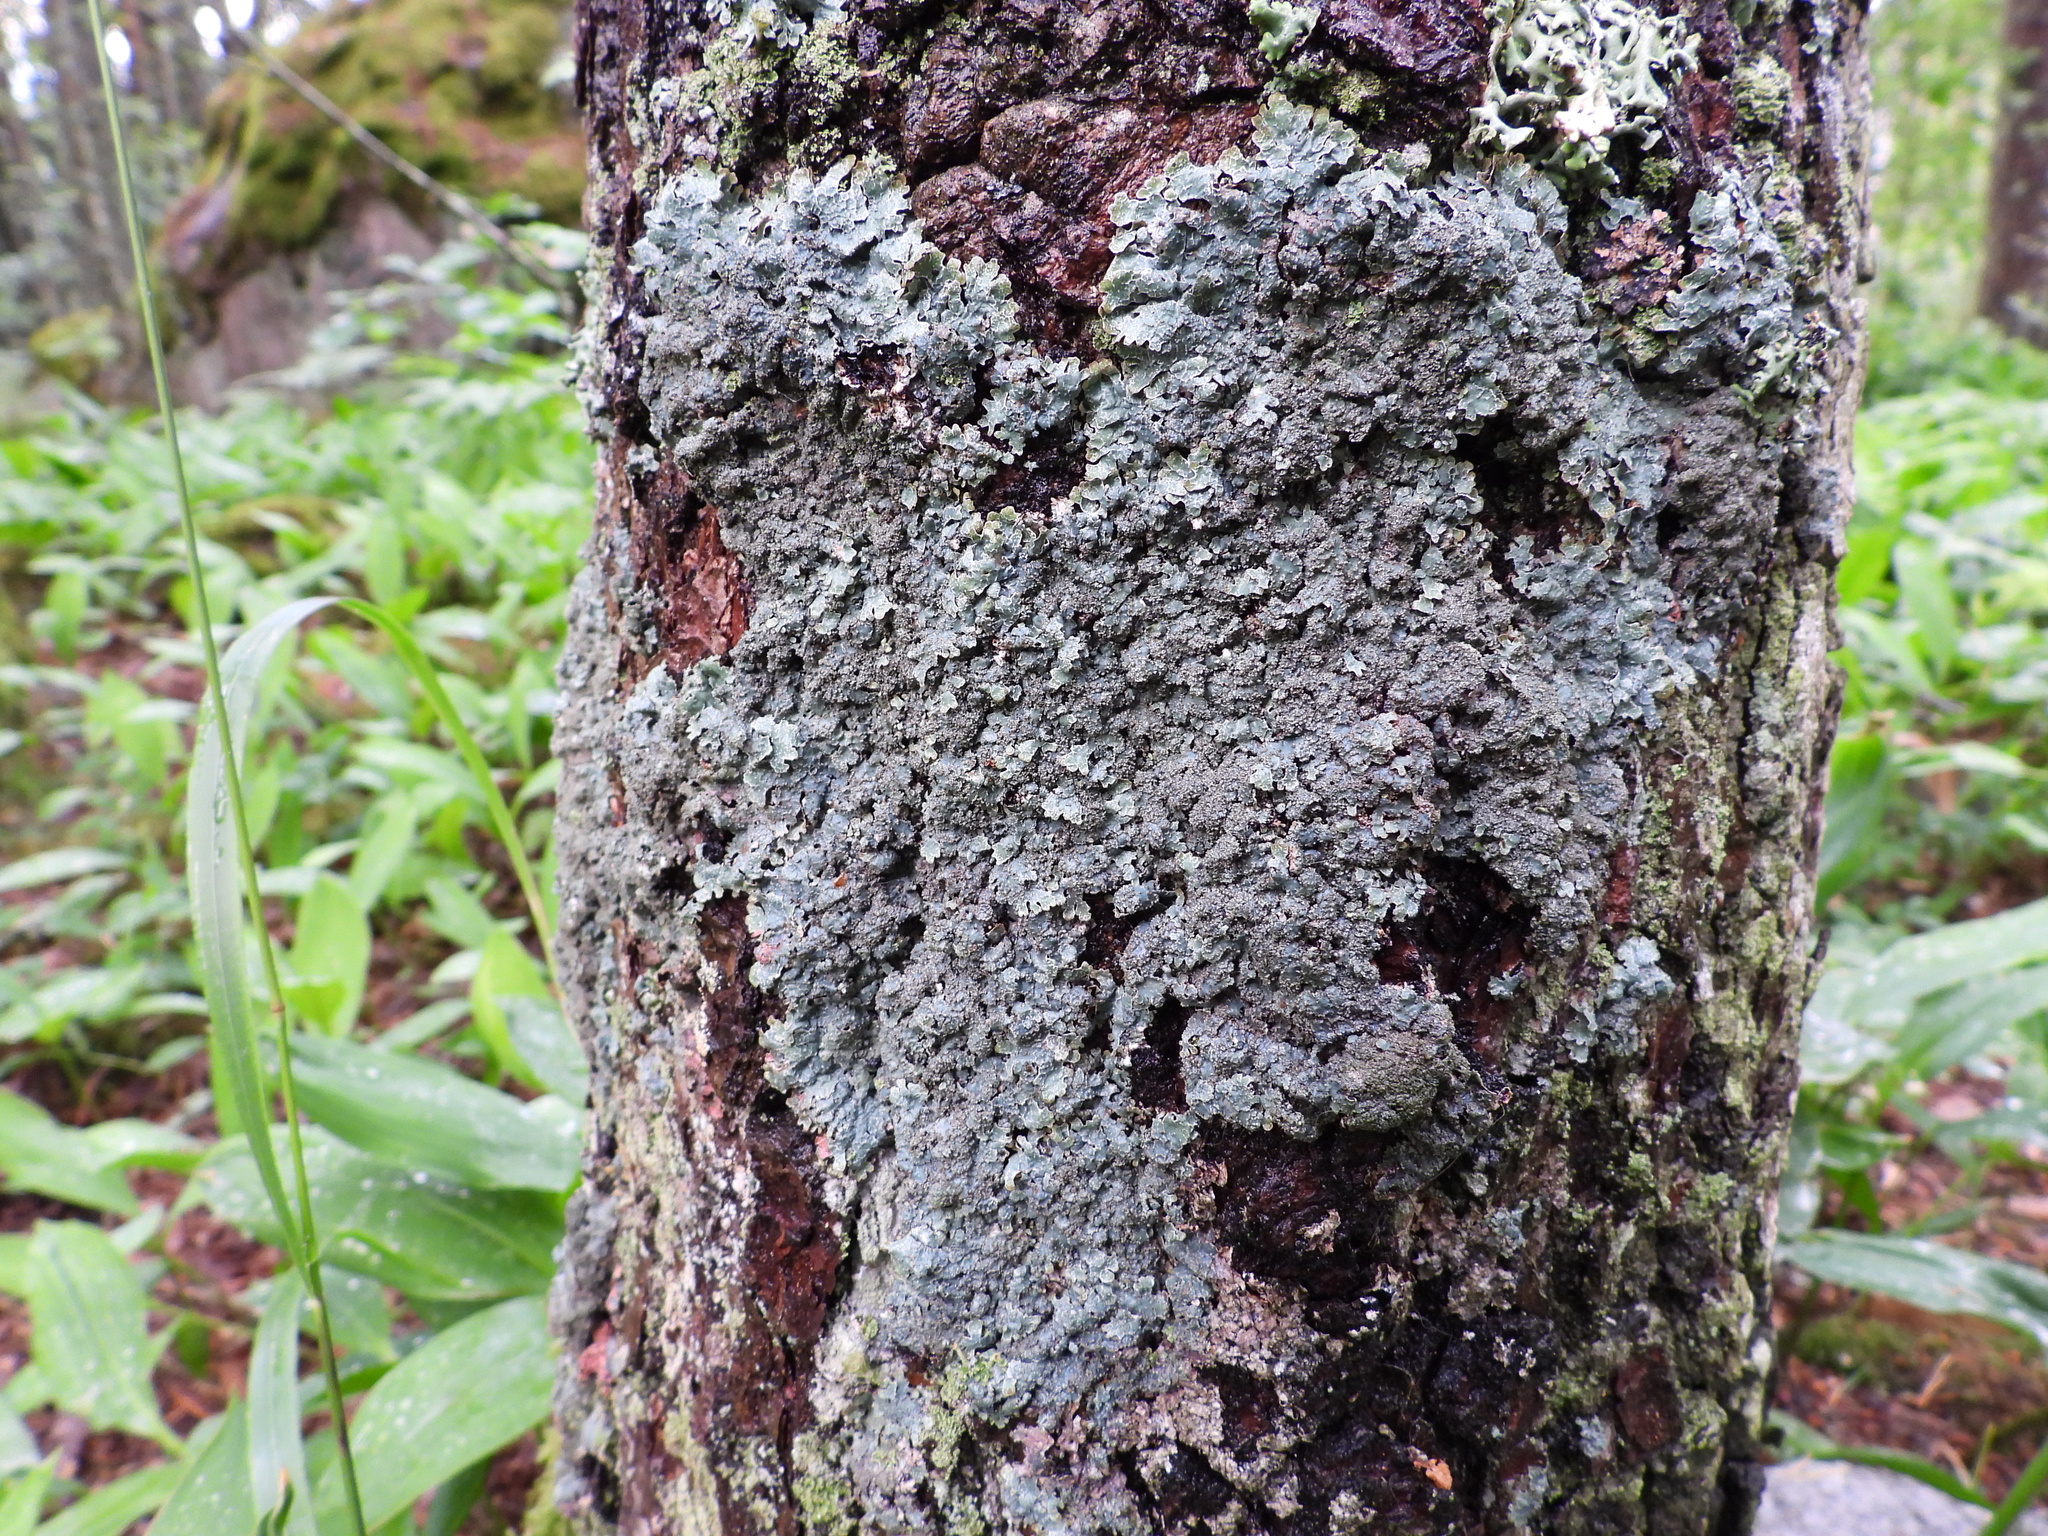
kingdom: Fungi
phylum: Ascomycota
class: Lecanoromycetes
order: Lecanorales
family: Parmeliaceae
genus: Parmelia
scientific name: Parmelia saxatilis
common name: Salted shield lichen
